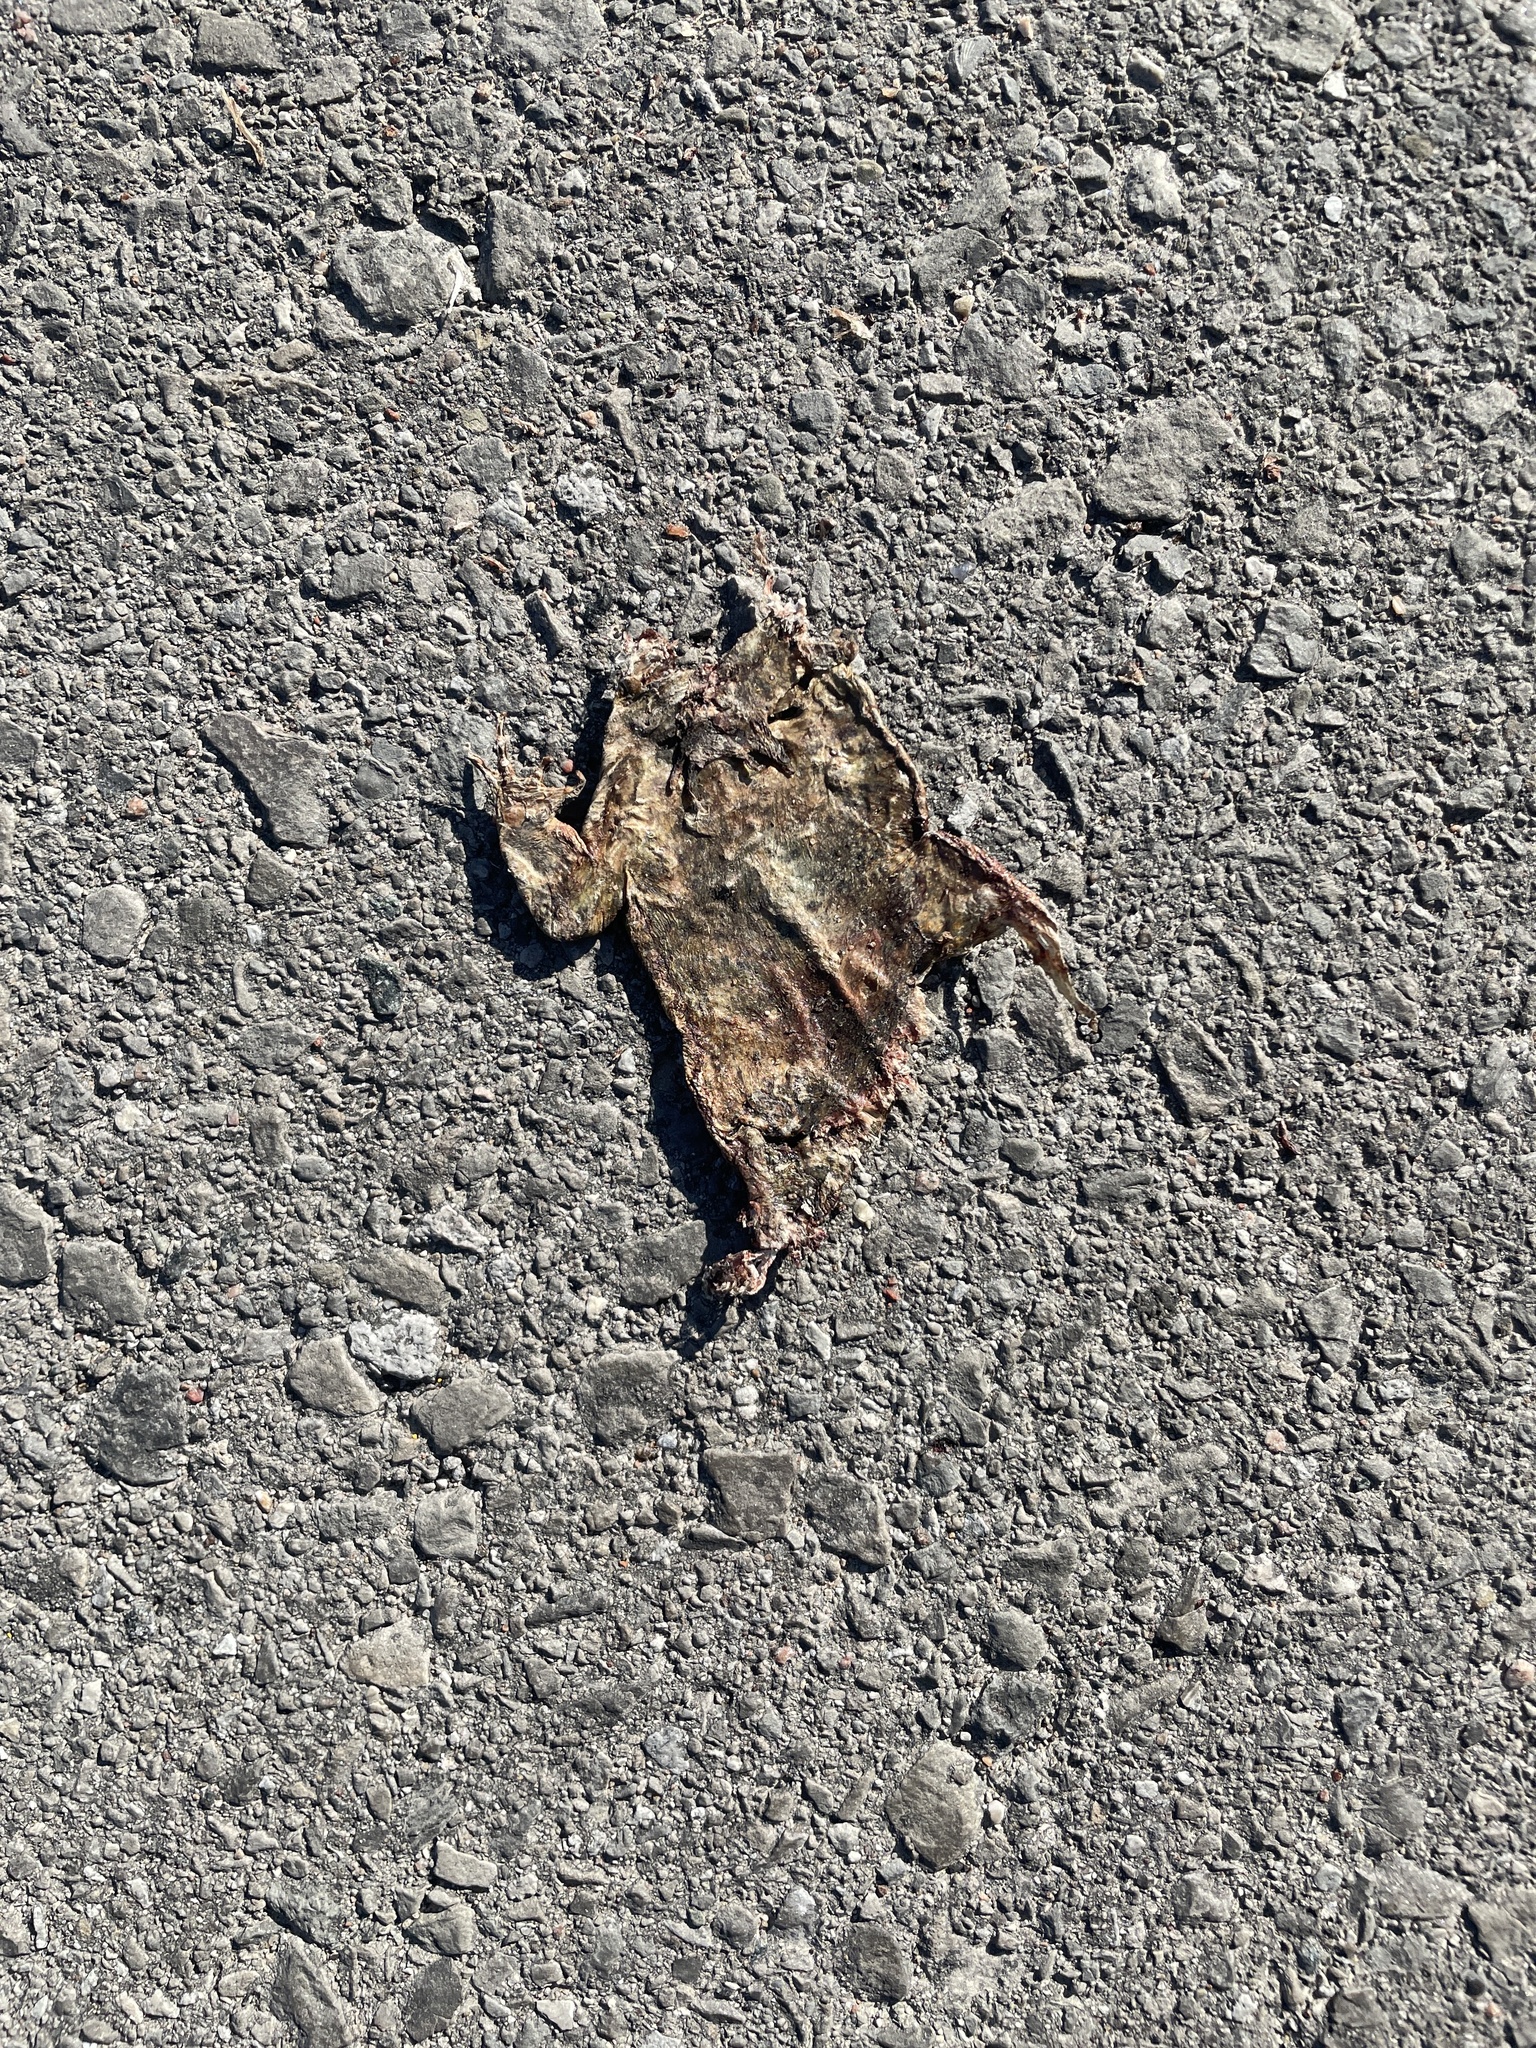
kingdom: Animalia
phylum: Chordata
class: Amphibia
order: Anura
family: Bufonidae
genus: Anaxyrus
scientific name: Anaxyrus americanus
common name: American toad
